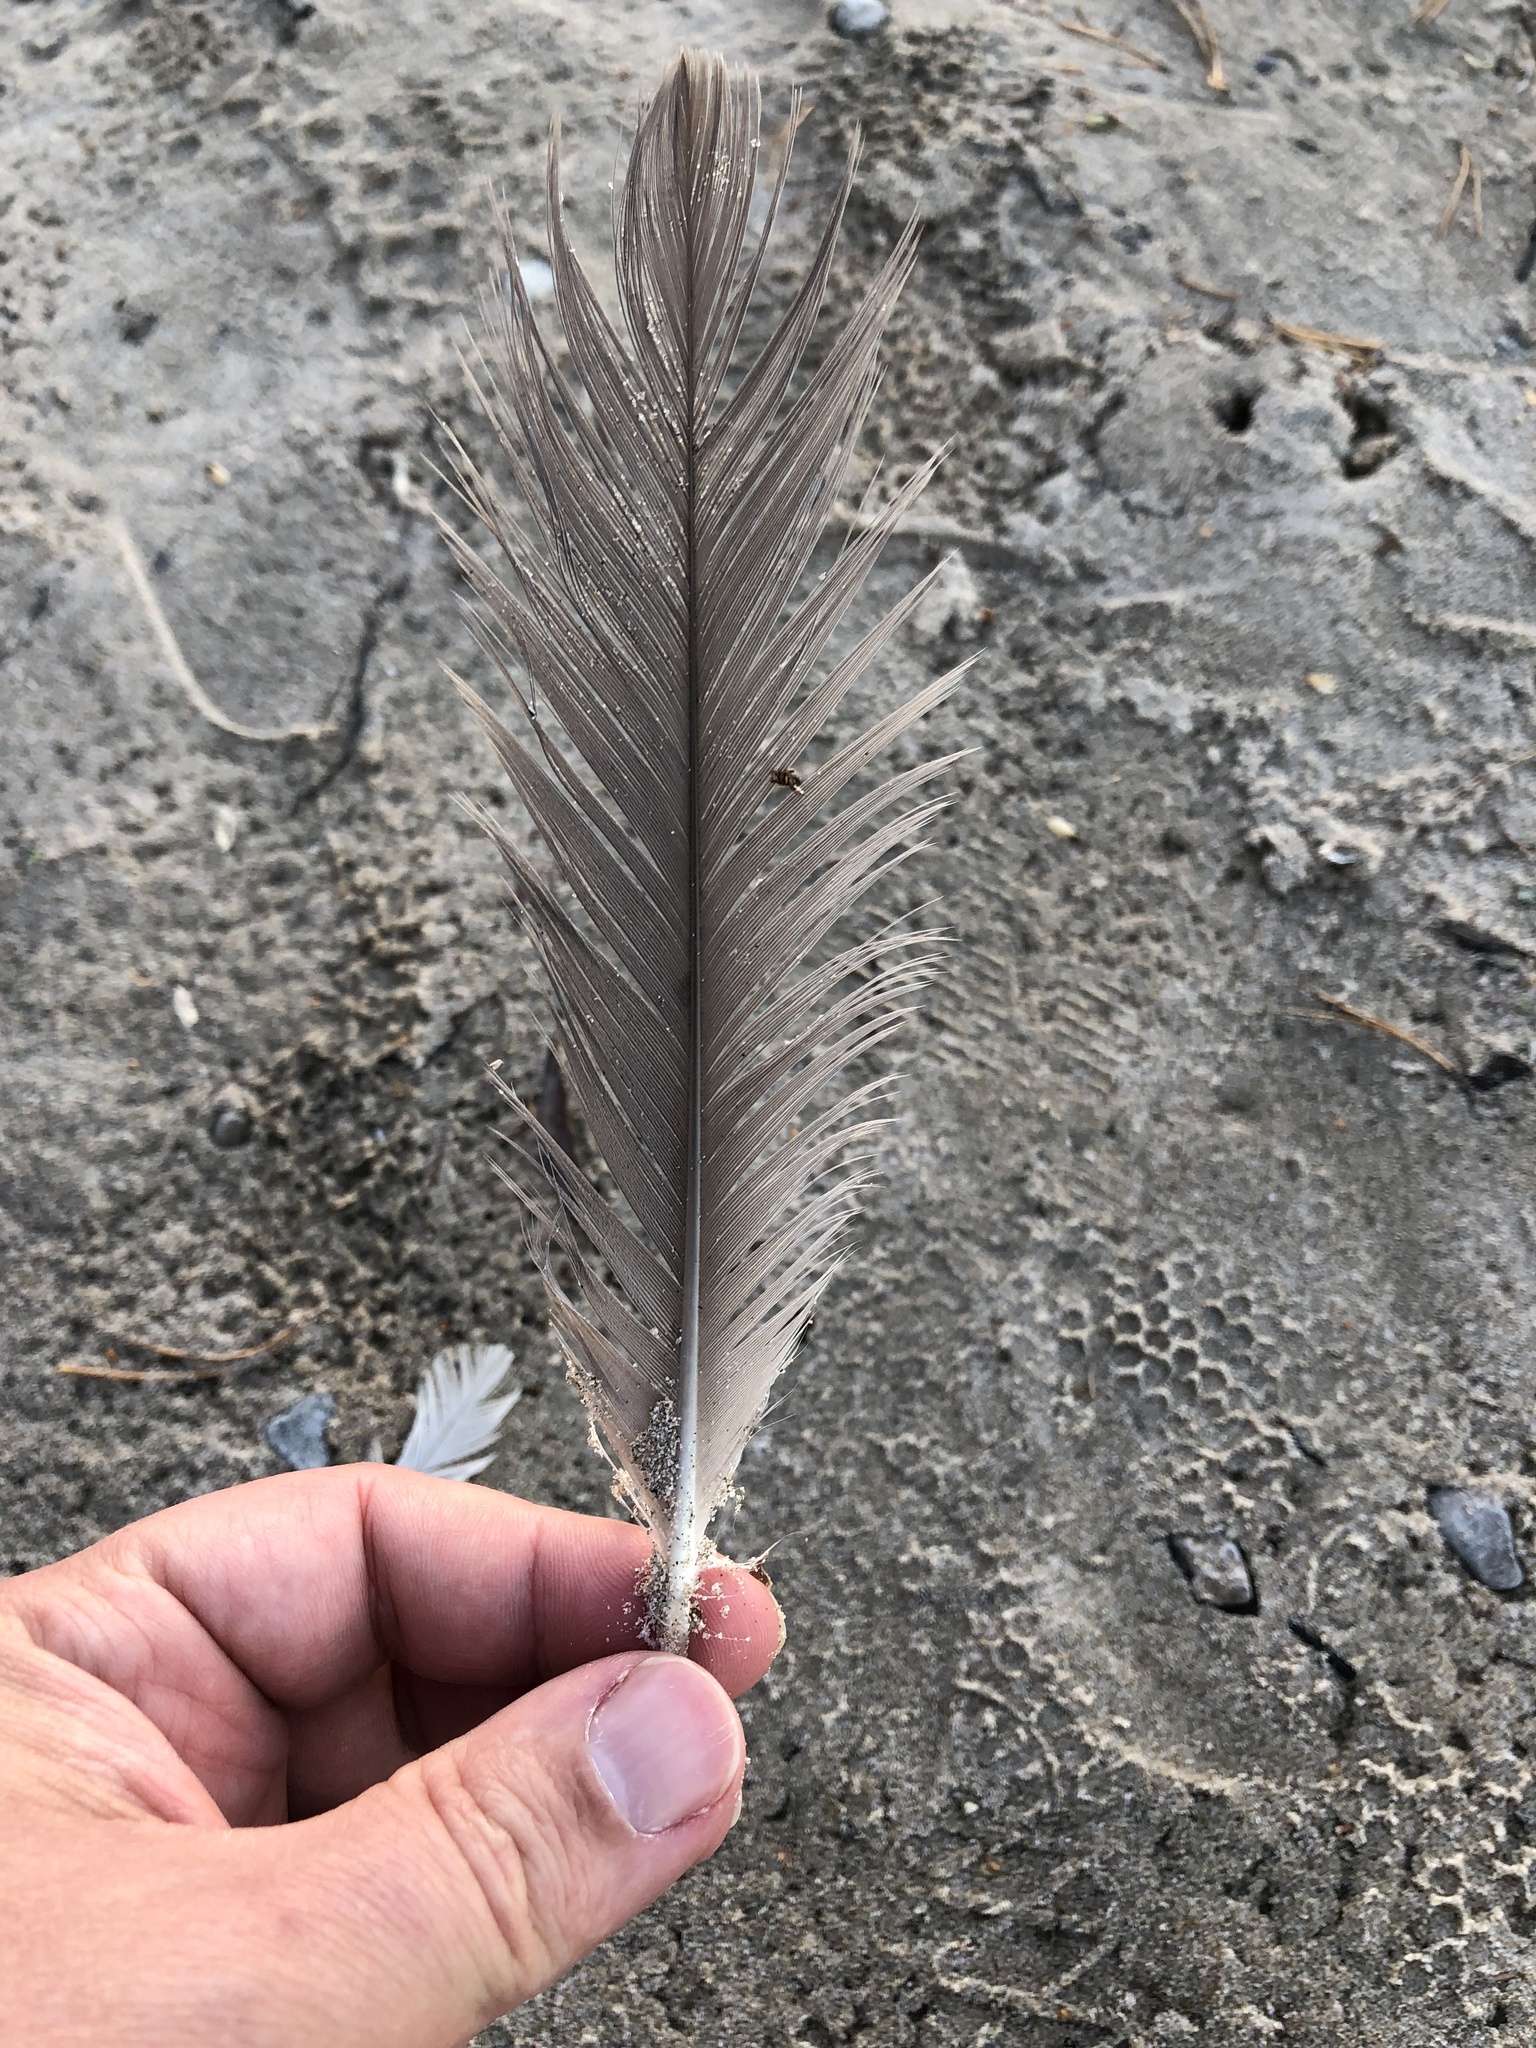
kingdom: Animalia
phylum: Chordata
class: Aves
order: Anseriformes
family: Anatidae
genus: Branta
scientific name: Branta canadensis
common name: Canada goose
